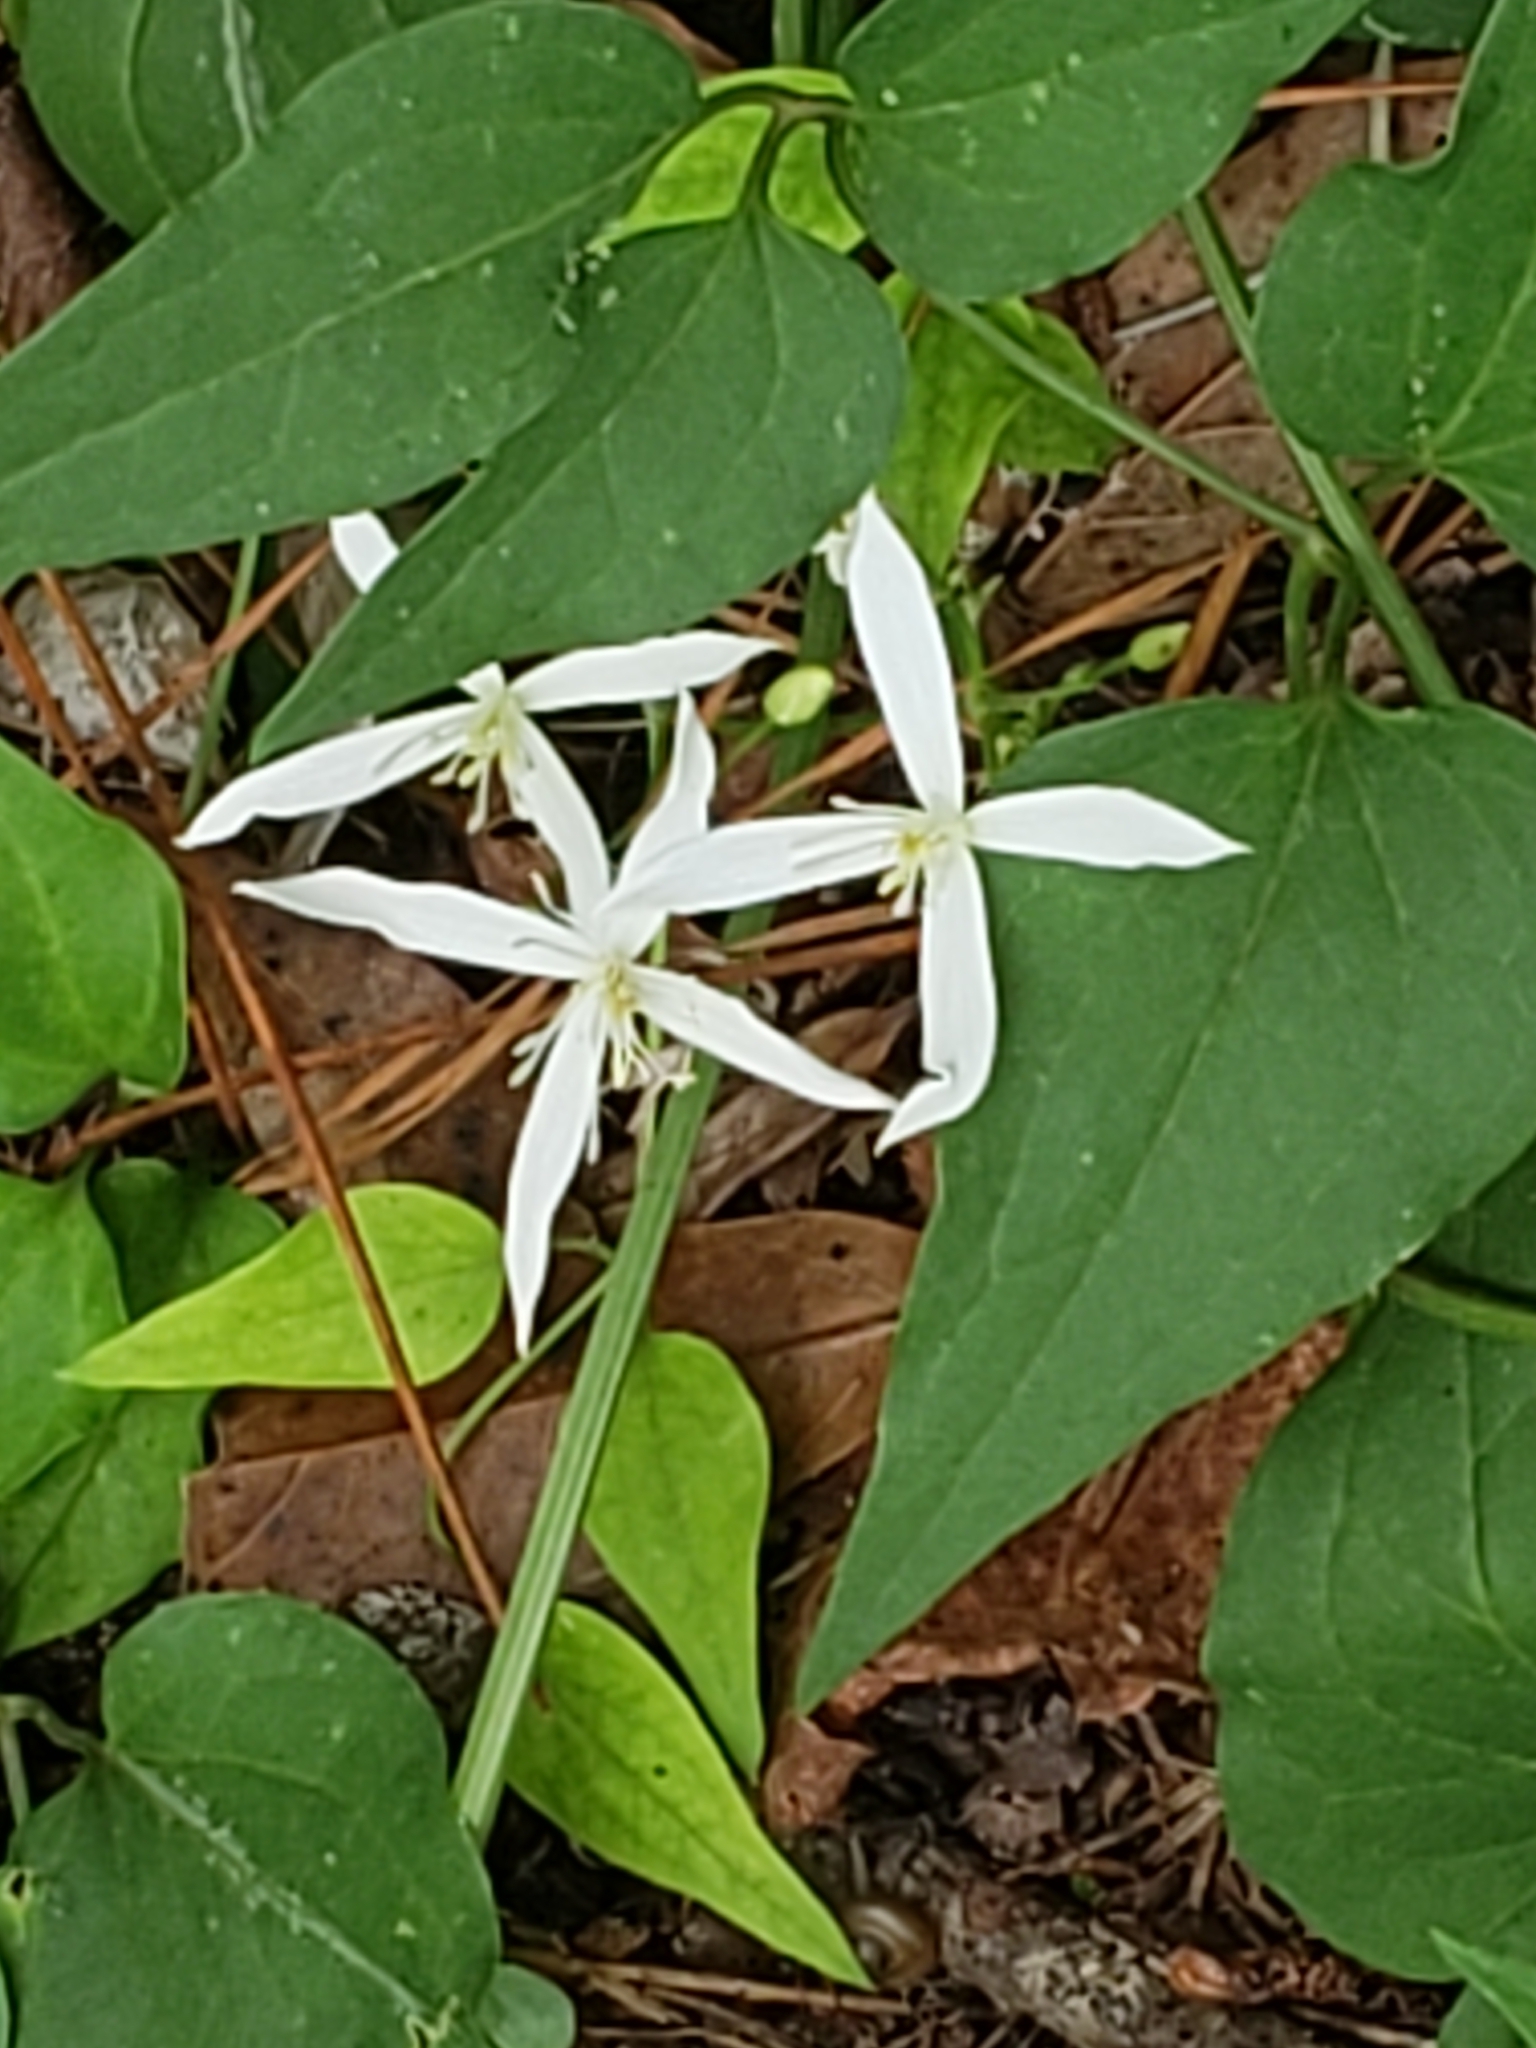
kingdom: Plantae
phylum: Tracheophyta
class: Magnoliopsida
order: Ranunculales
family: Ranunculaceae
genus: Clematis
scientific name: Clematis terniflora
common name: Sweet autumn clematis
